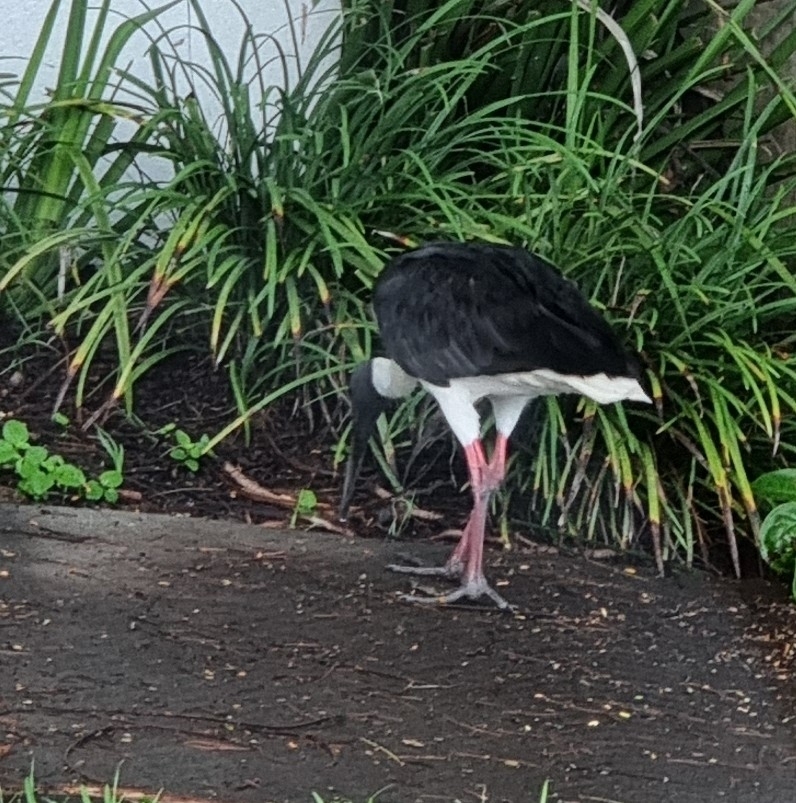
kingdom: Animalia
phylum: Chordata
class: Aves
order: Pelecaniformes
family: Threskiornithidae
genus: Threskiornis
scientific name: Threskiornis spinicollis
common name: Straw-necked ibis
